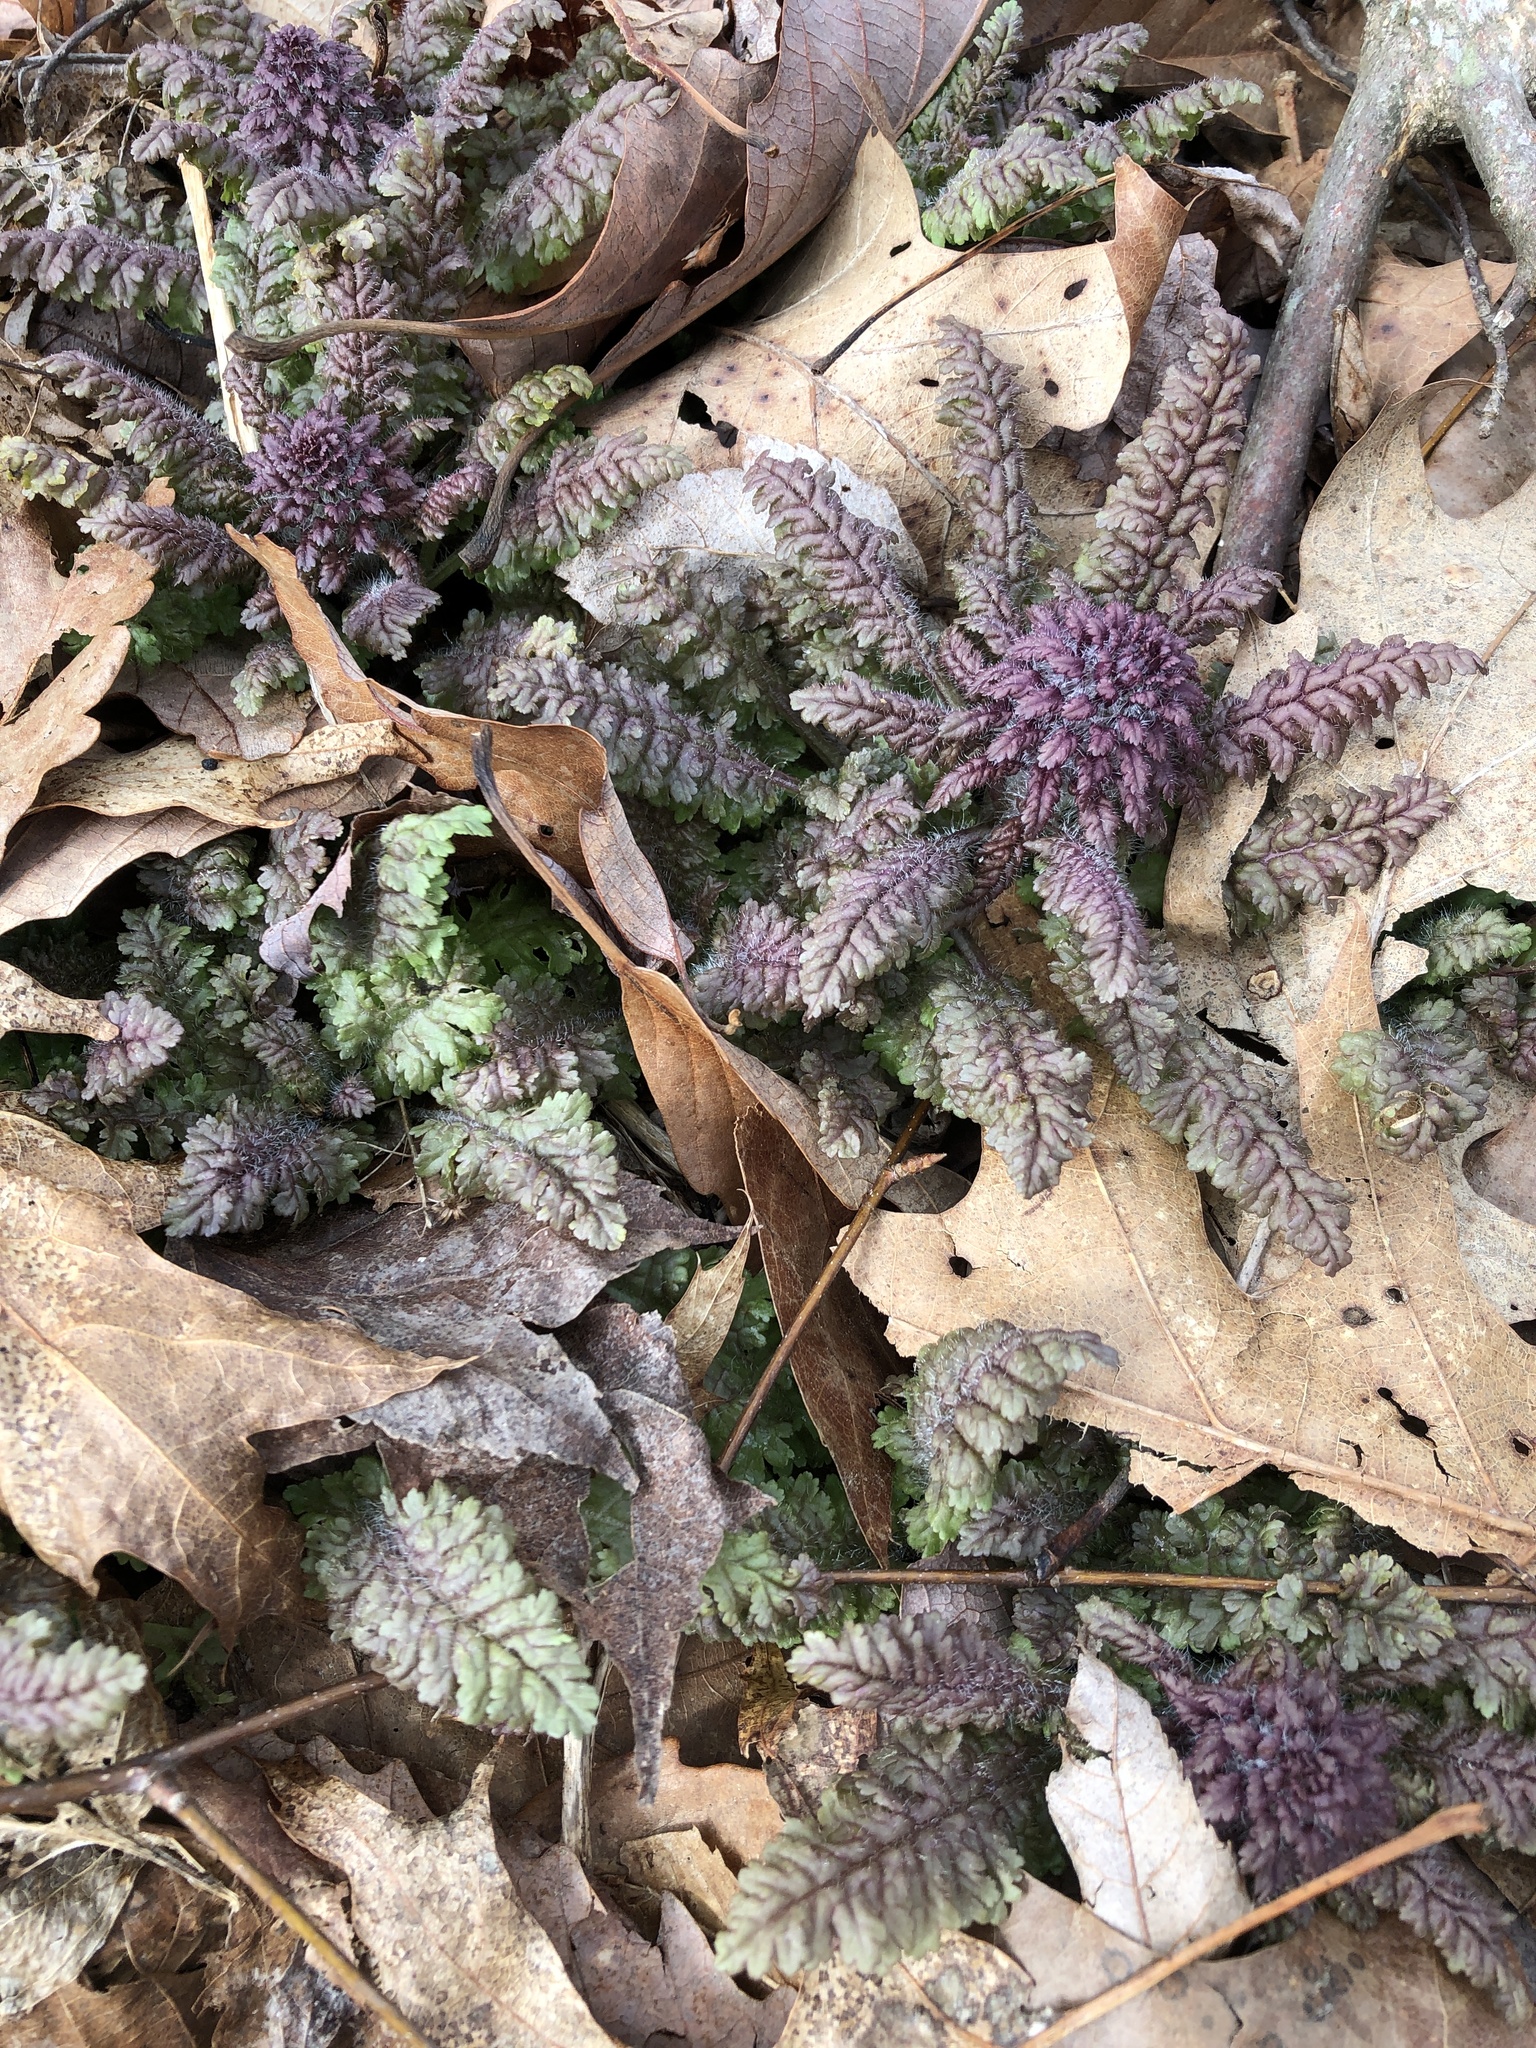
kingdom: Plantae
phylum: Tracheophyta
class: Magnoliopsida
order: Lamiales
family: Orobanchaceae
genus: Pedicularis
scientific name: Pedicularis canadensis
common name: Early lousewort
